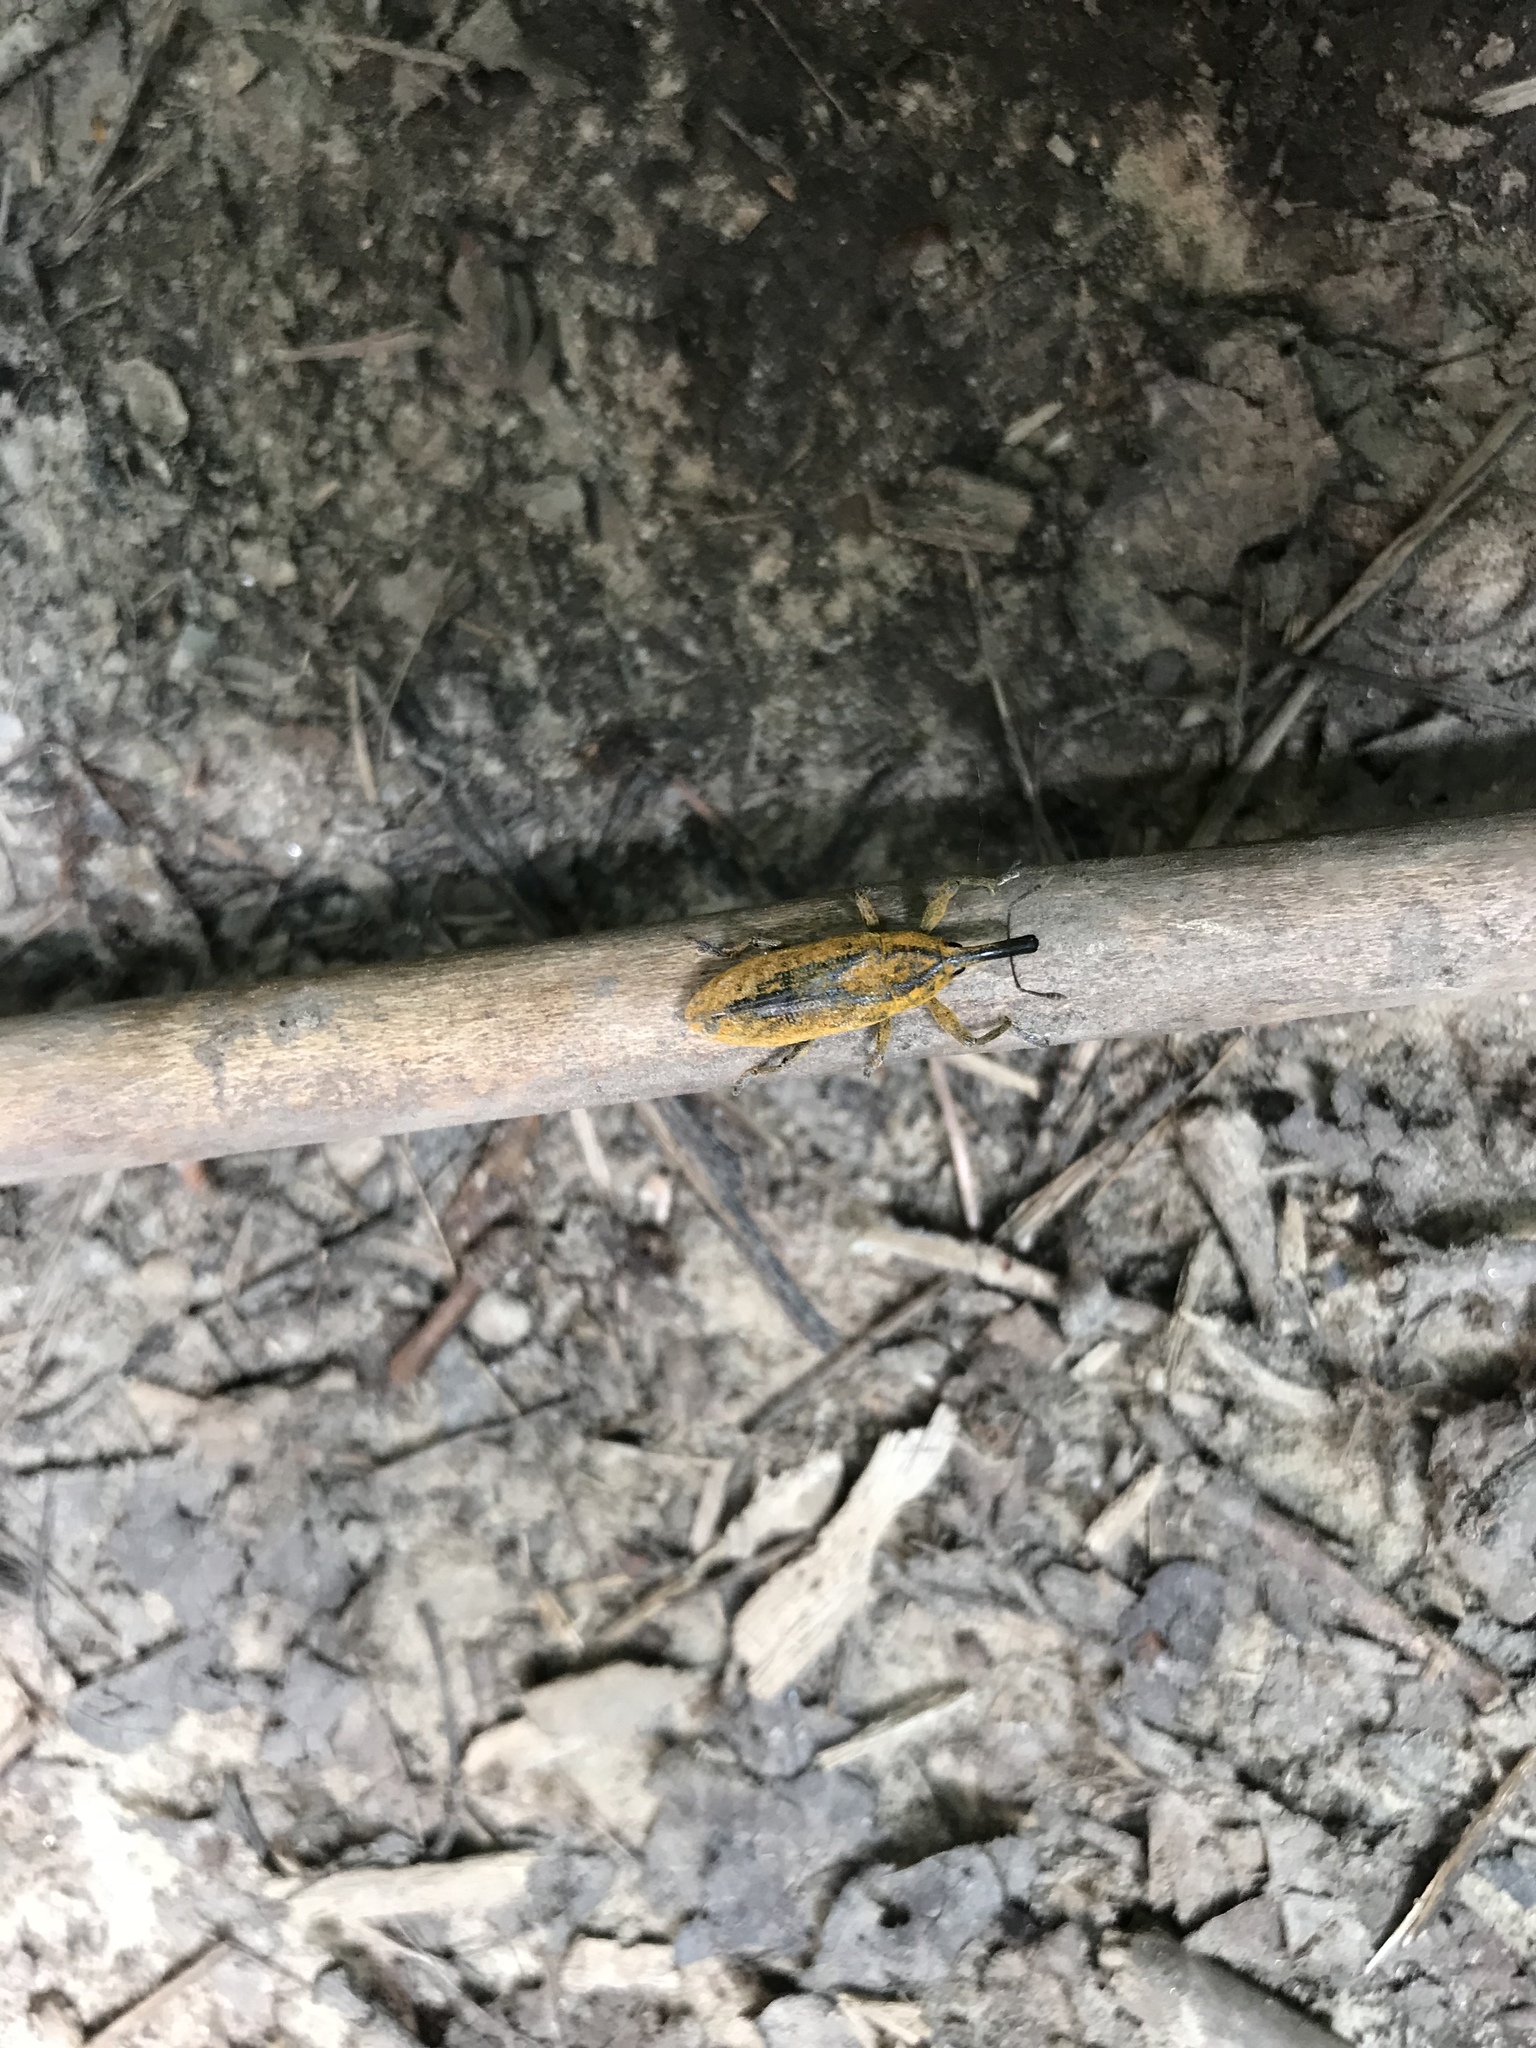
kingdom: Animalia
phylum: Arthropoda
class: Insecta
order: Coleoptera
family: Curculionidae
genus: Lixus
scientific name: Lixus concavus
